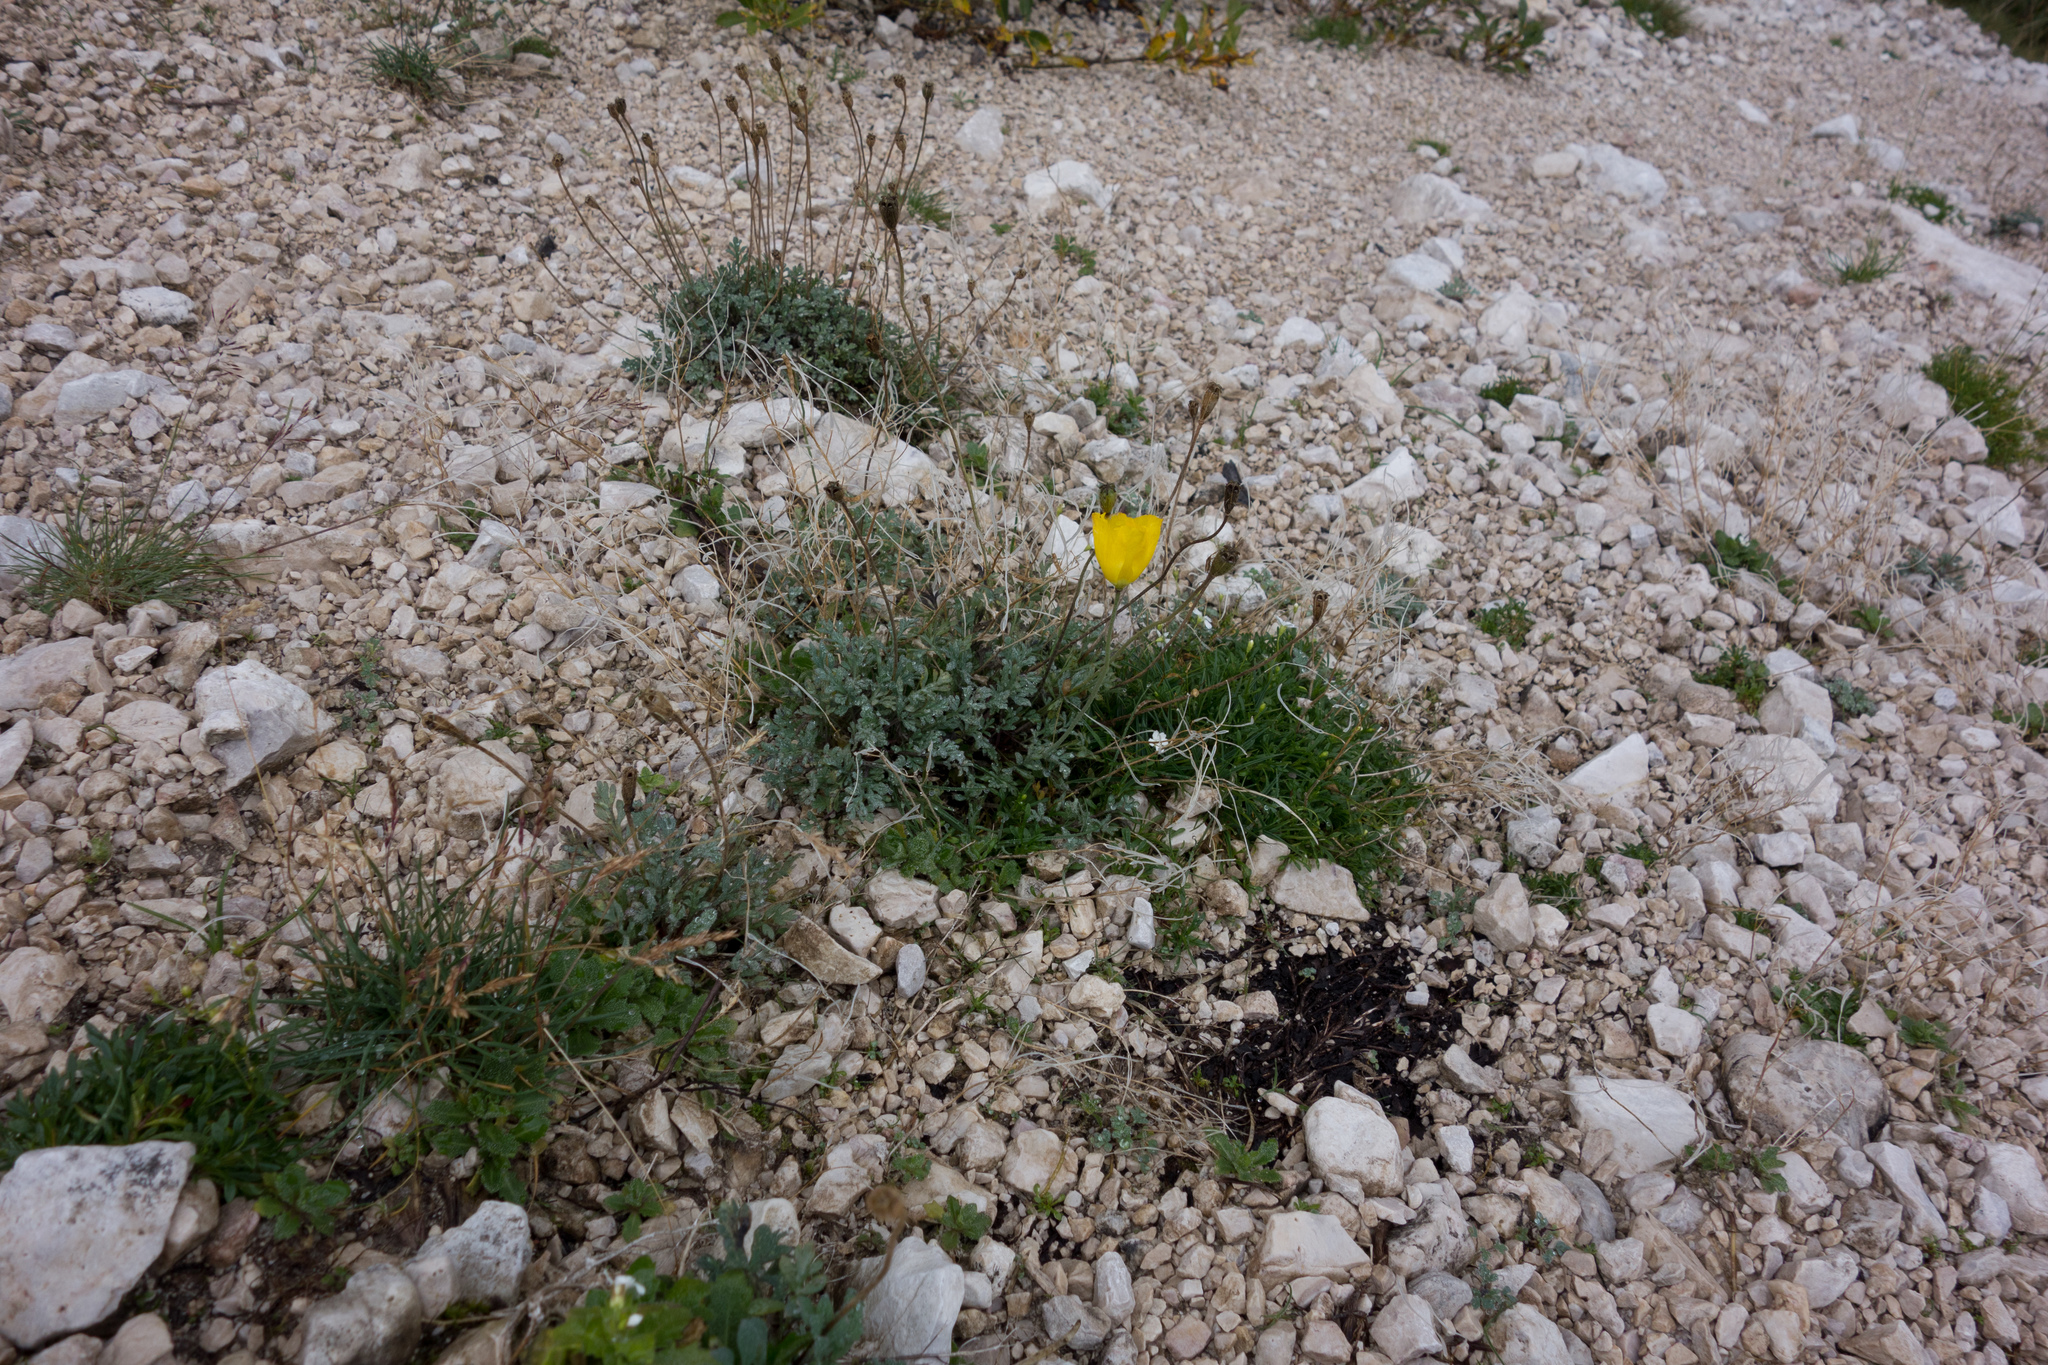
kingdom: Plantae
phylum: Tracheophyta
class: Magnoliopsida
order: Ranunculales
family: Papaveraceae
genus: Papaver
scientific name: Papaver alpinum
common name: Austrian poppy
